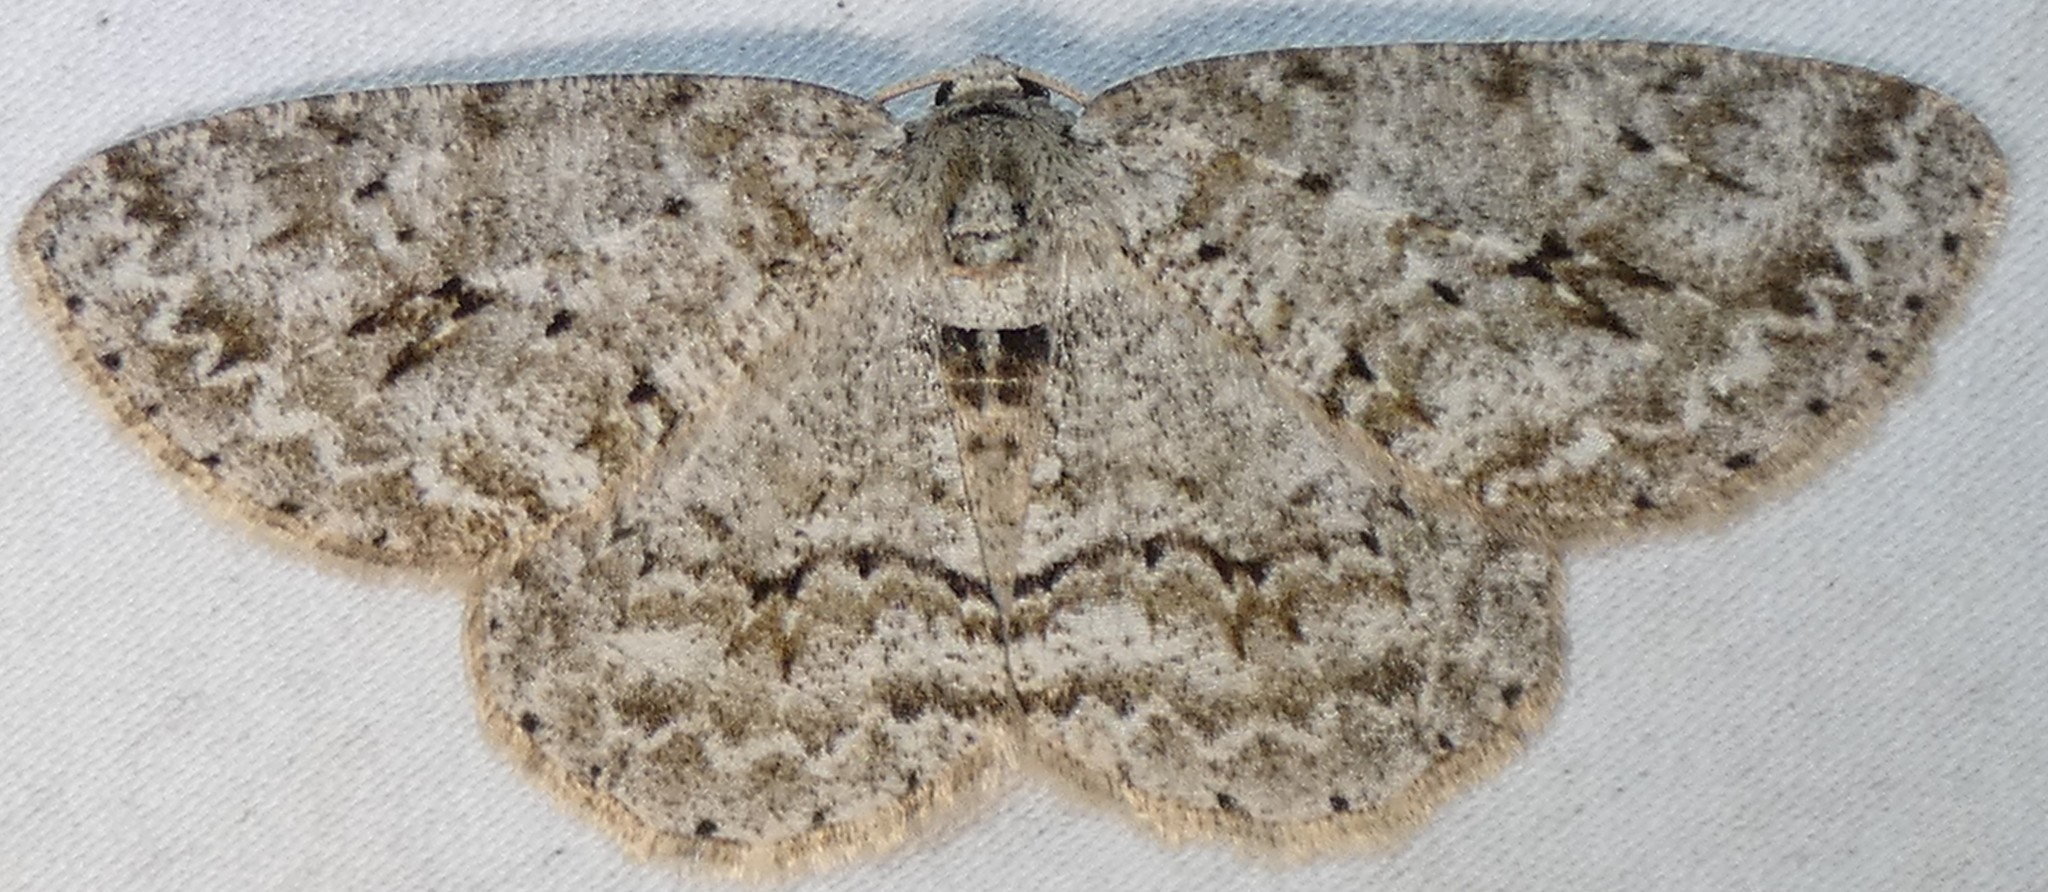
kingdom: Animalia
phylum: Arthropoda
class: Insecta
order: Lepidoptera
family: Geometridae
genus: Ectropis
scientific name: Ectropis crepuscularia
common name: Engrailed
